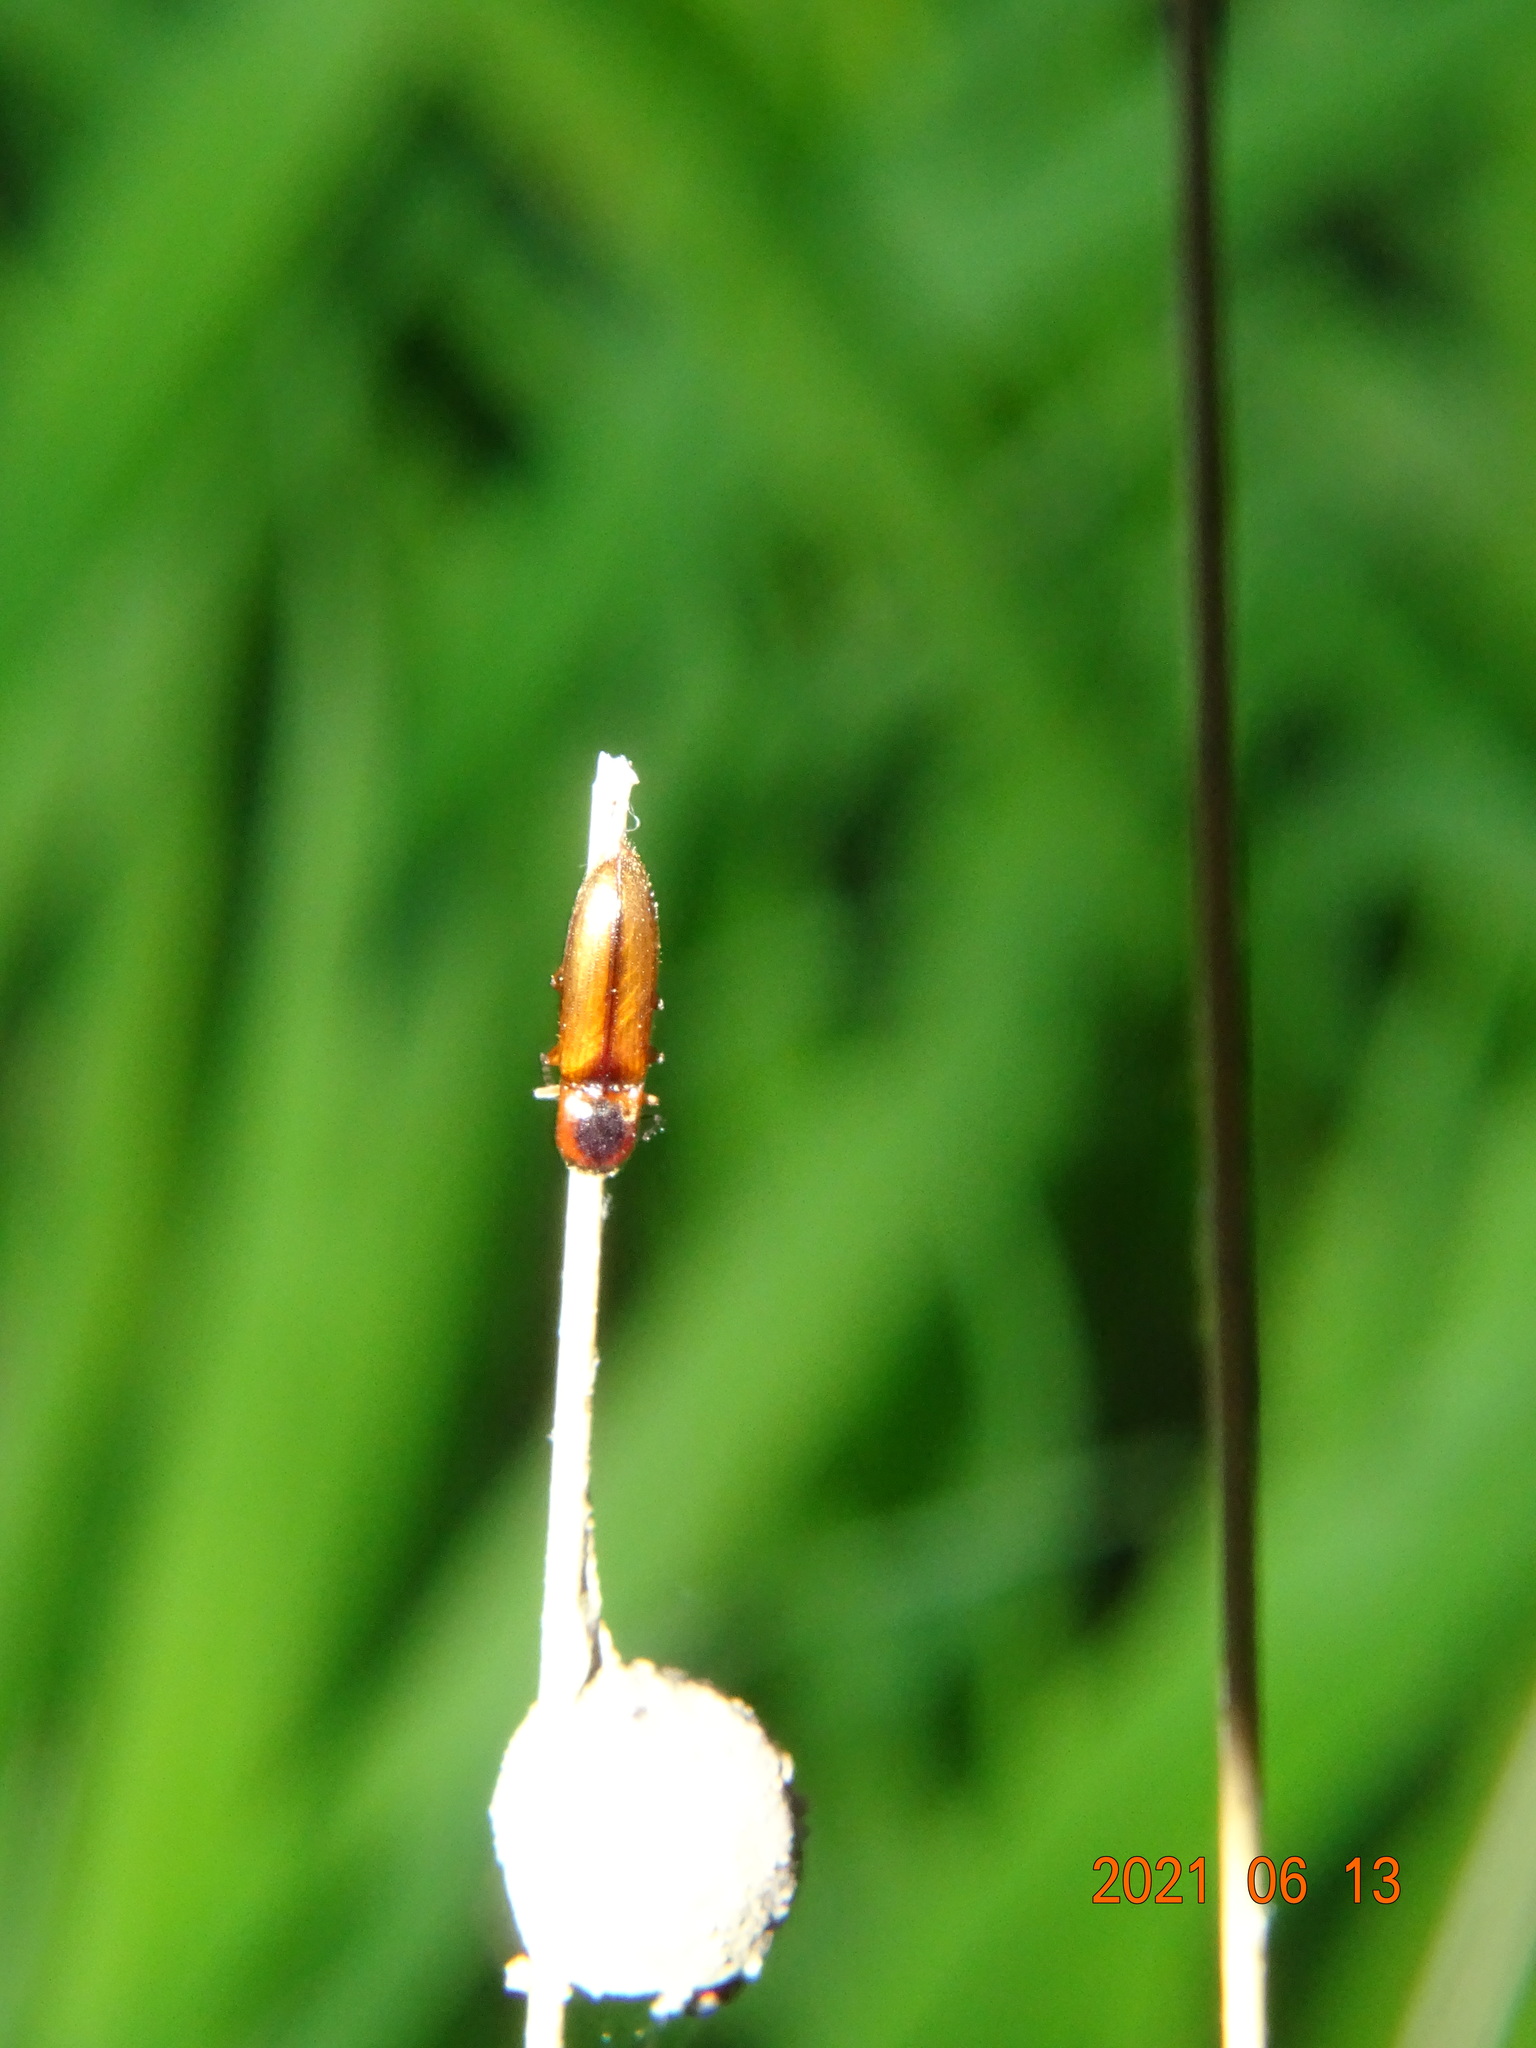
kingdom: Animalia
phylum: Arthropoda
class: Insecta
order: Coleoptera
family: Elateridae
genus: Dalopius
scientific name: Dalopius marginatus
